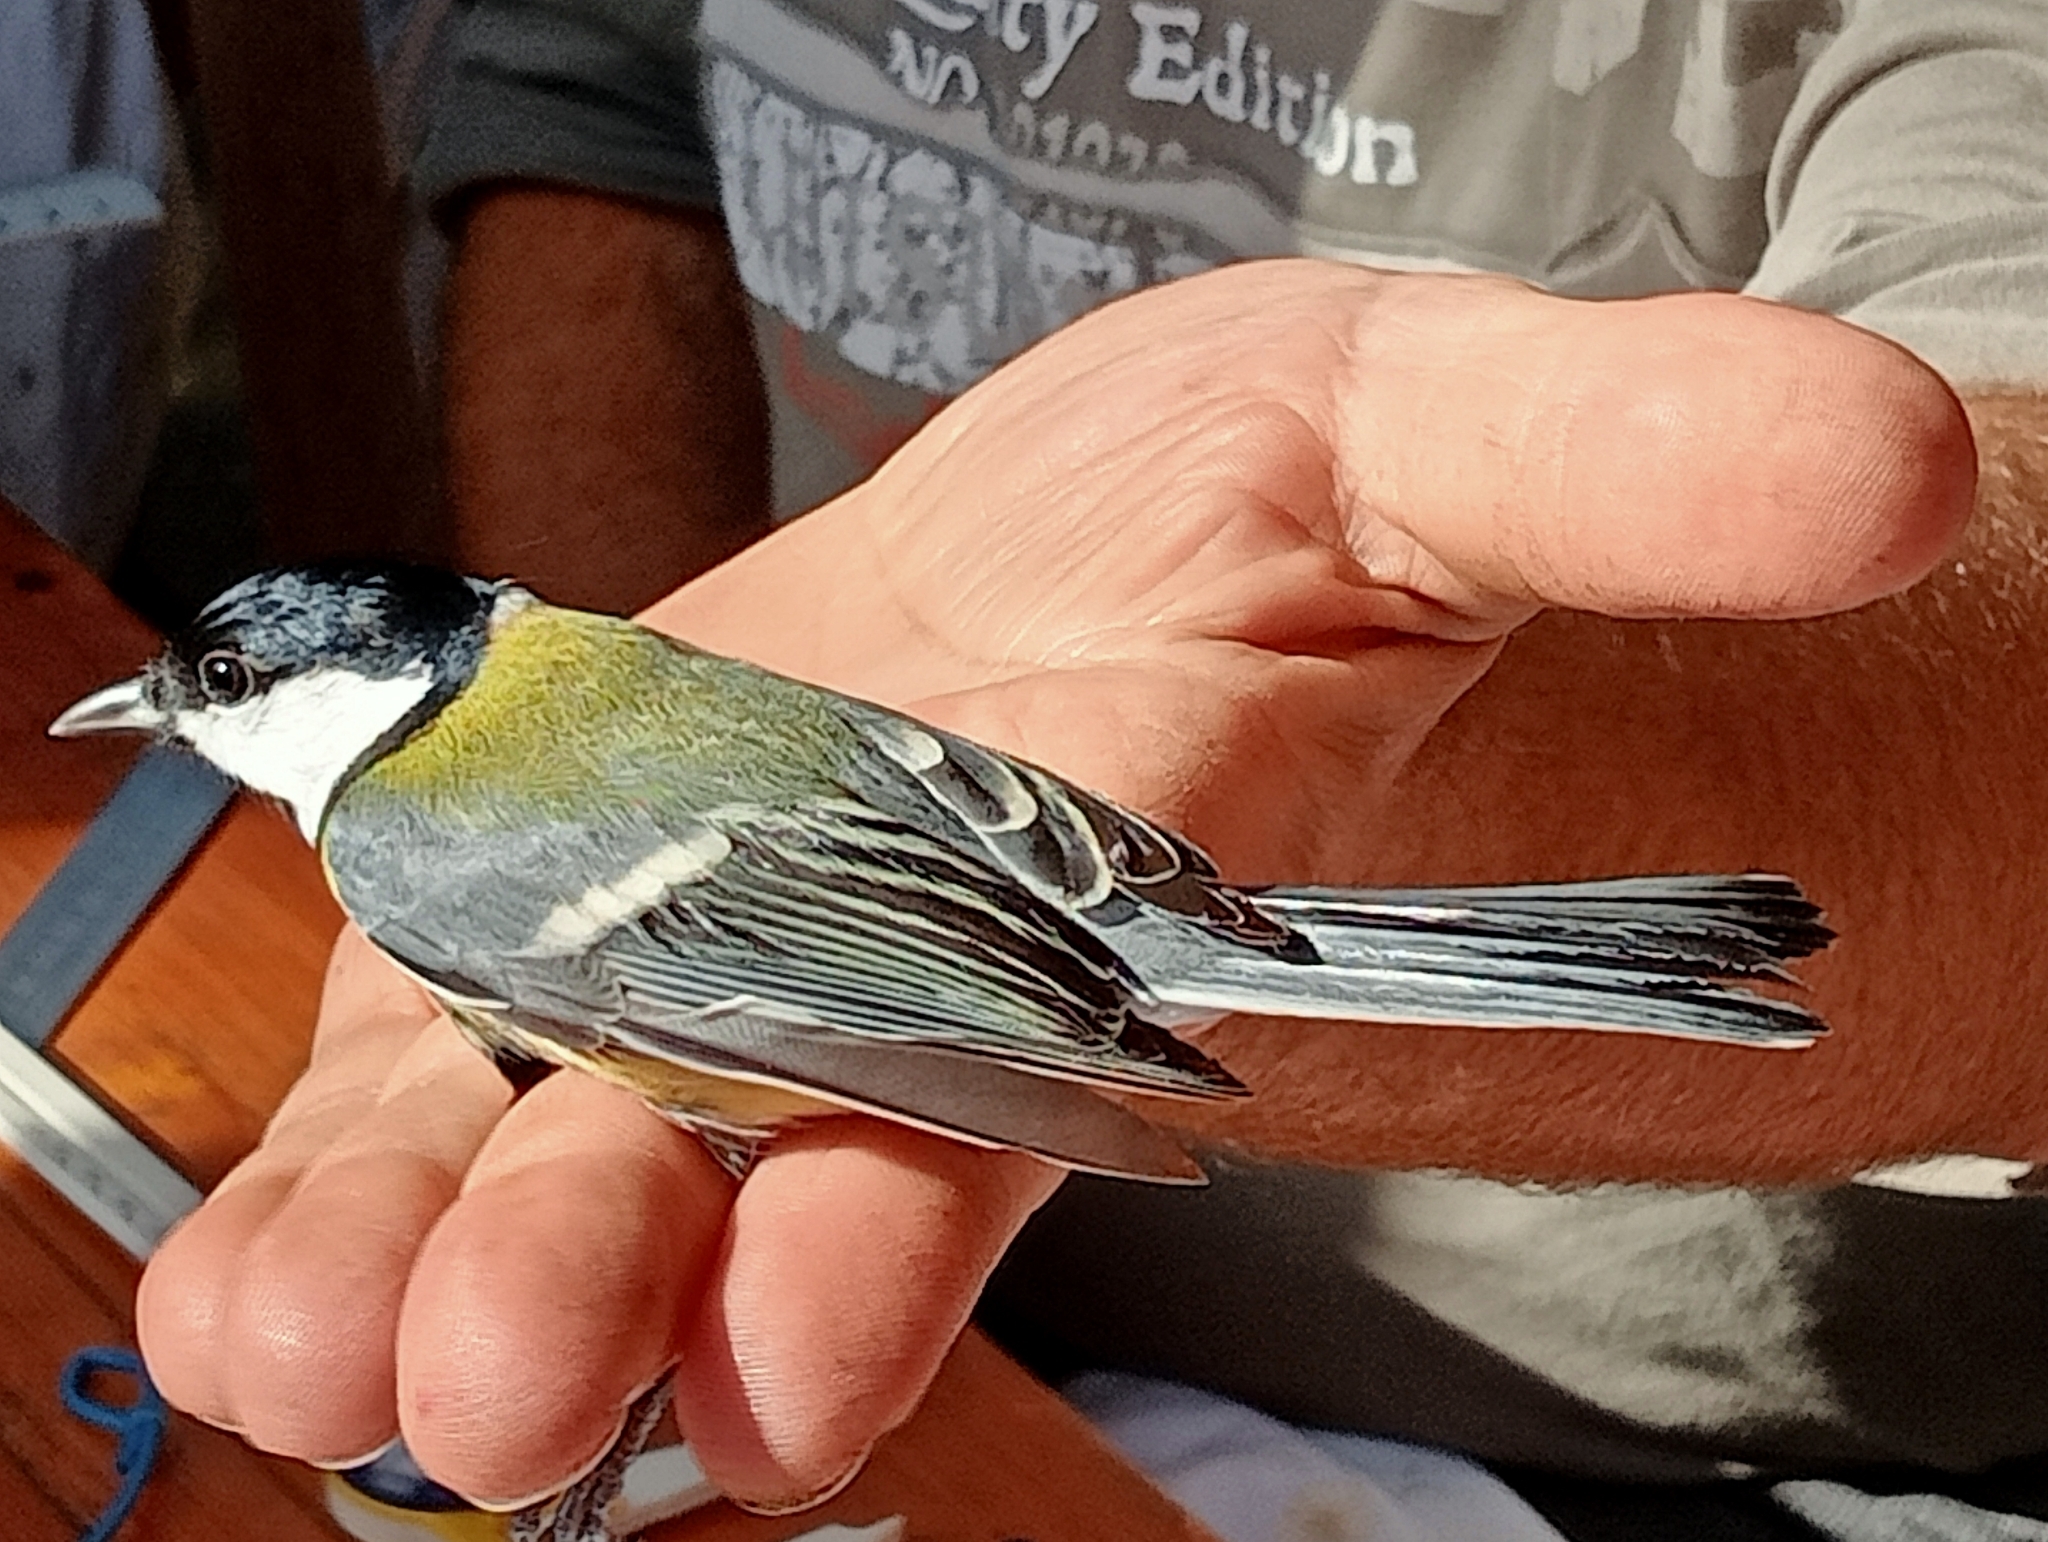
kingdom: Animalia
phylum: Chordata
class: Aves
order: Passeriformes
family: Paridae
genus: Parus
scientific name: Parus major
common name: Great tit
